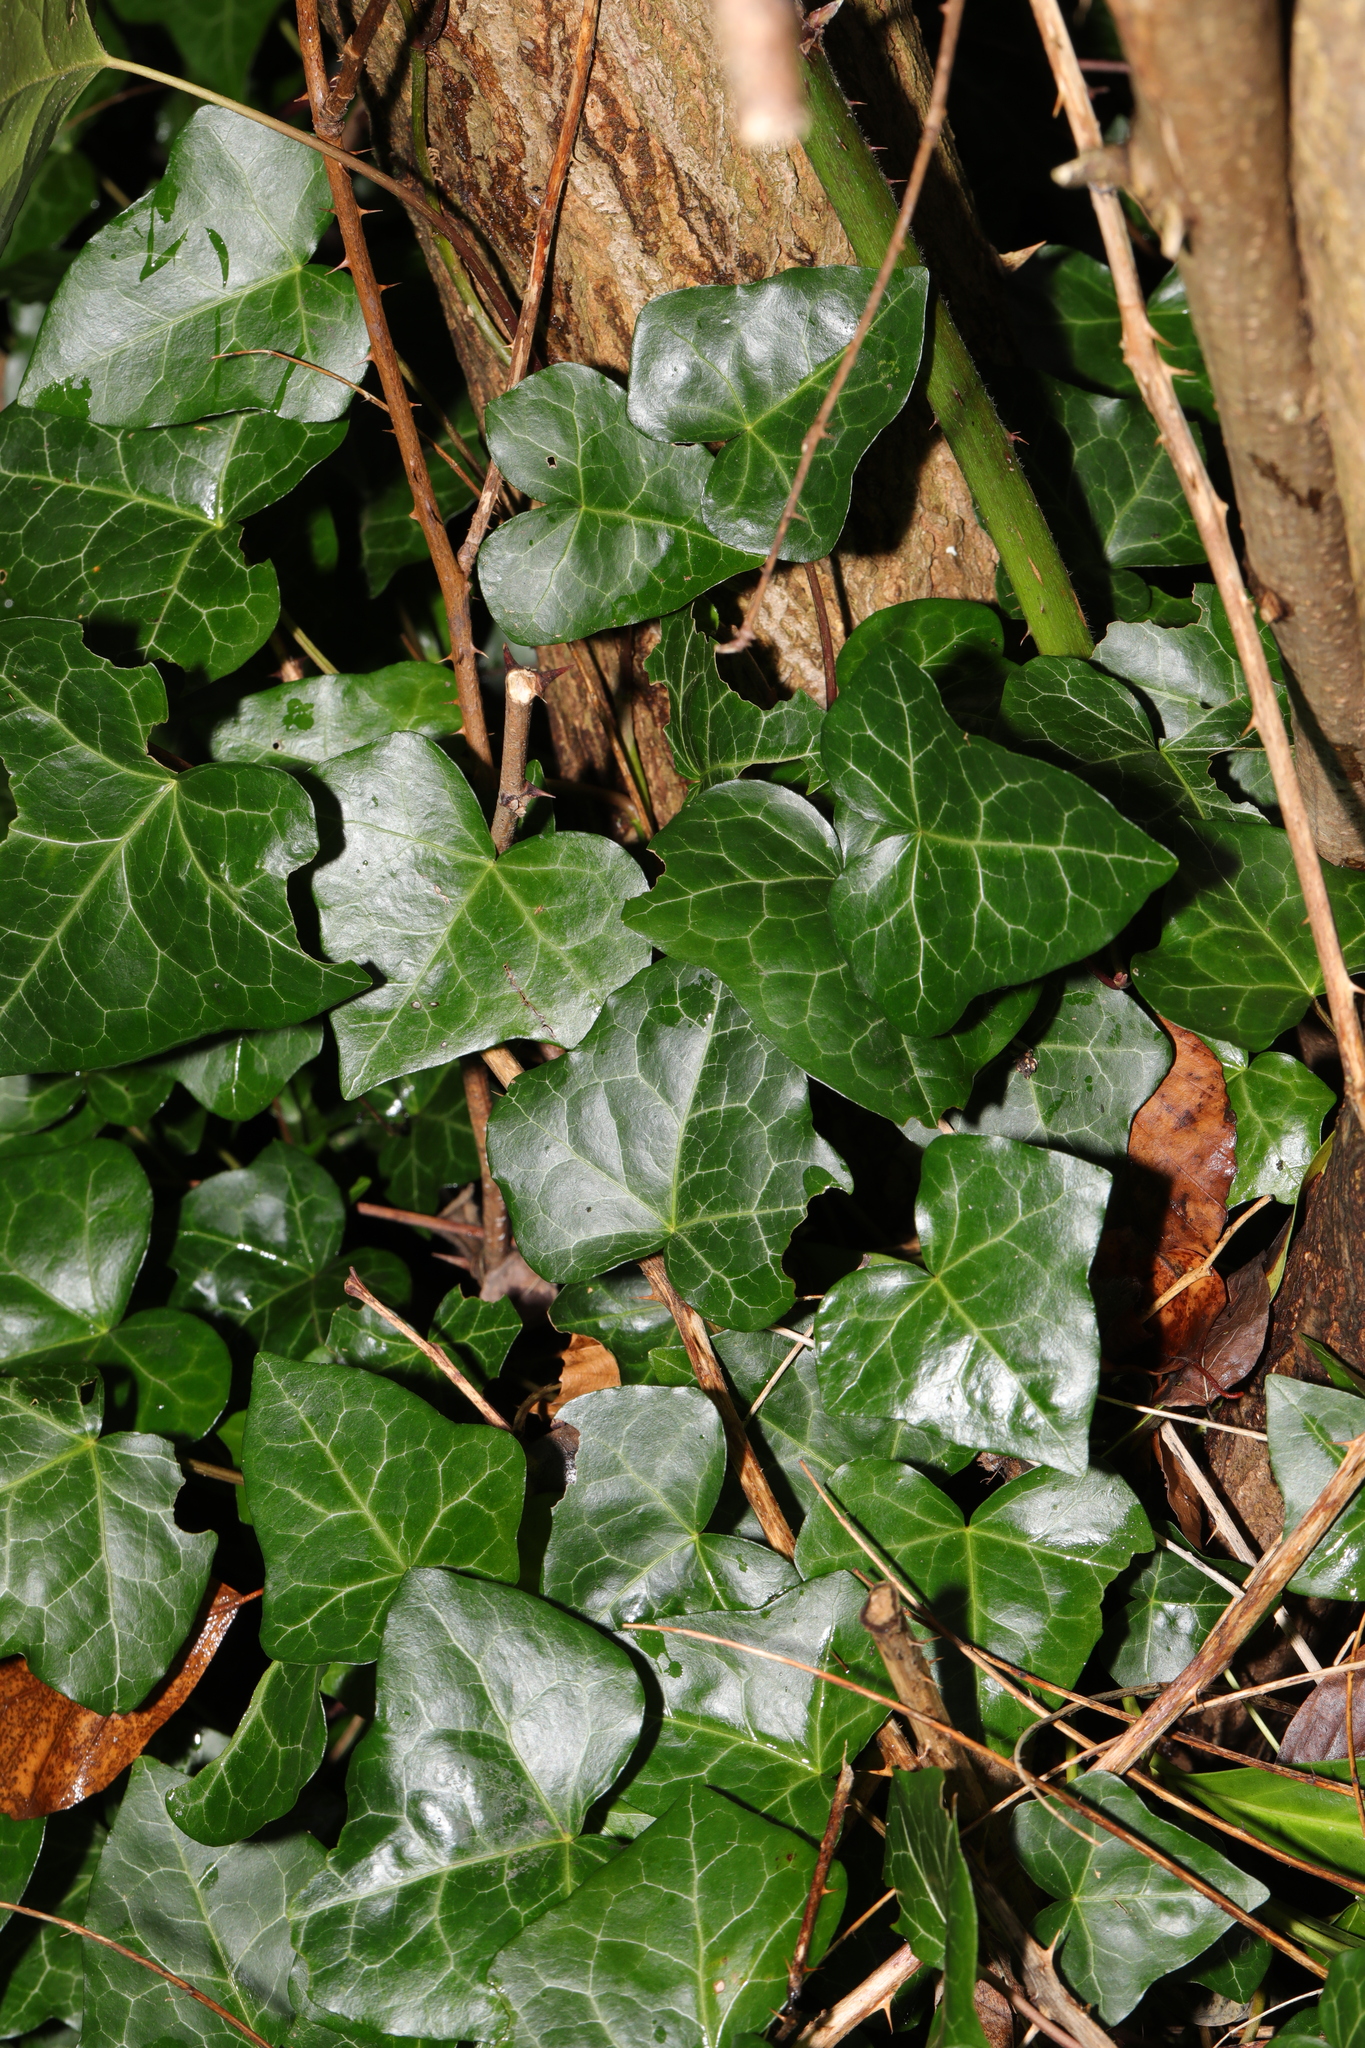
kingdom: Plantae
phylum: Tracheophyta
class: Magnoliopsida
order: Apiales
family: Araliaceae
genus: Hedera
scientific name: Hedera helix
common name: Ivy
